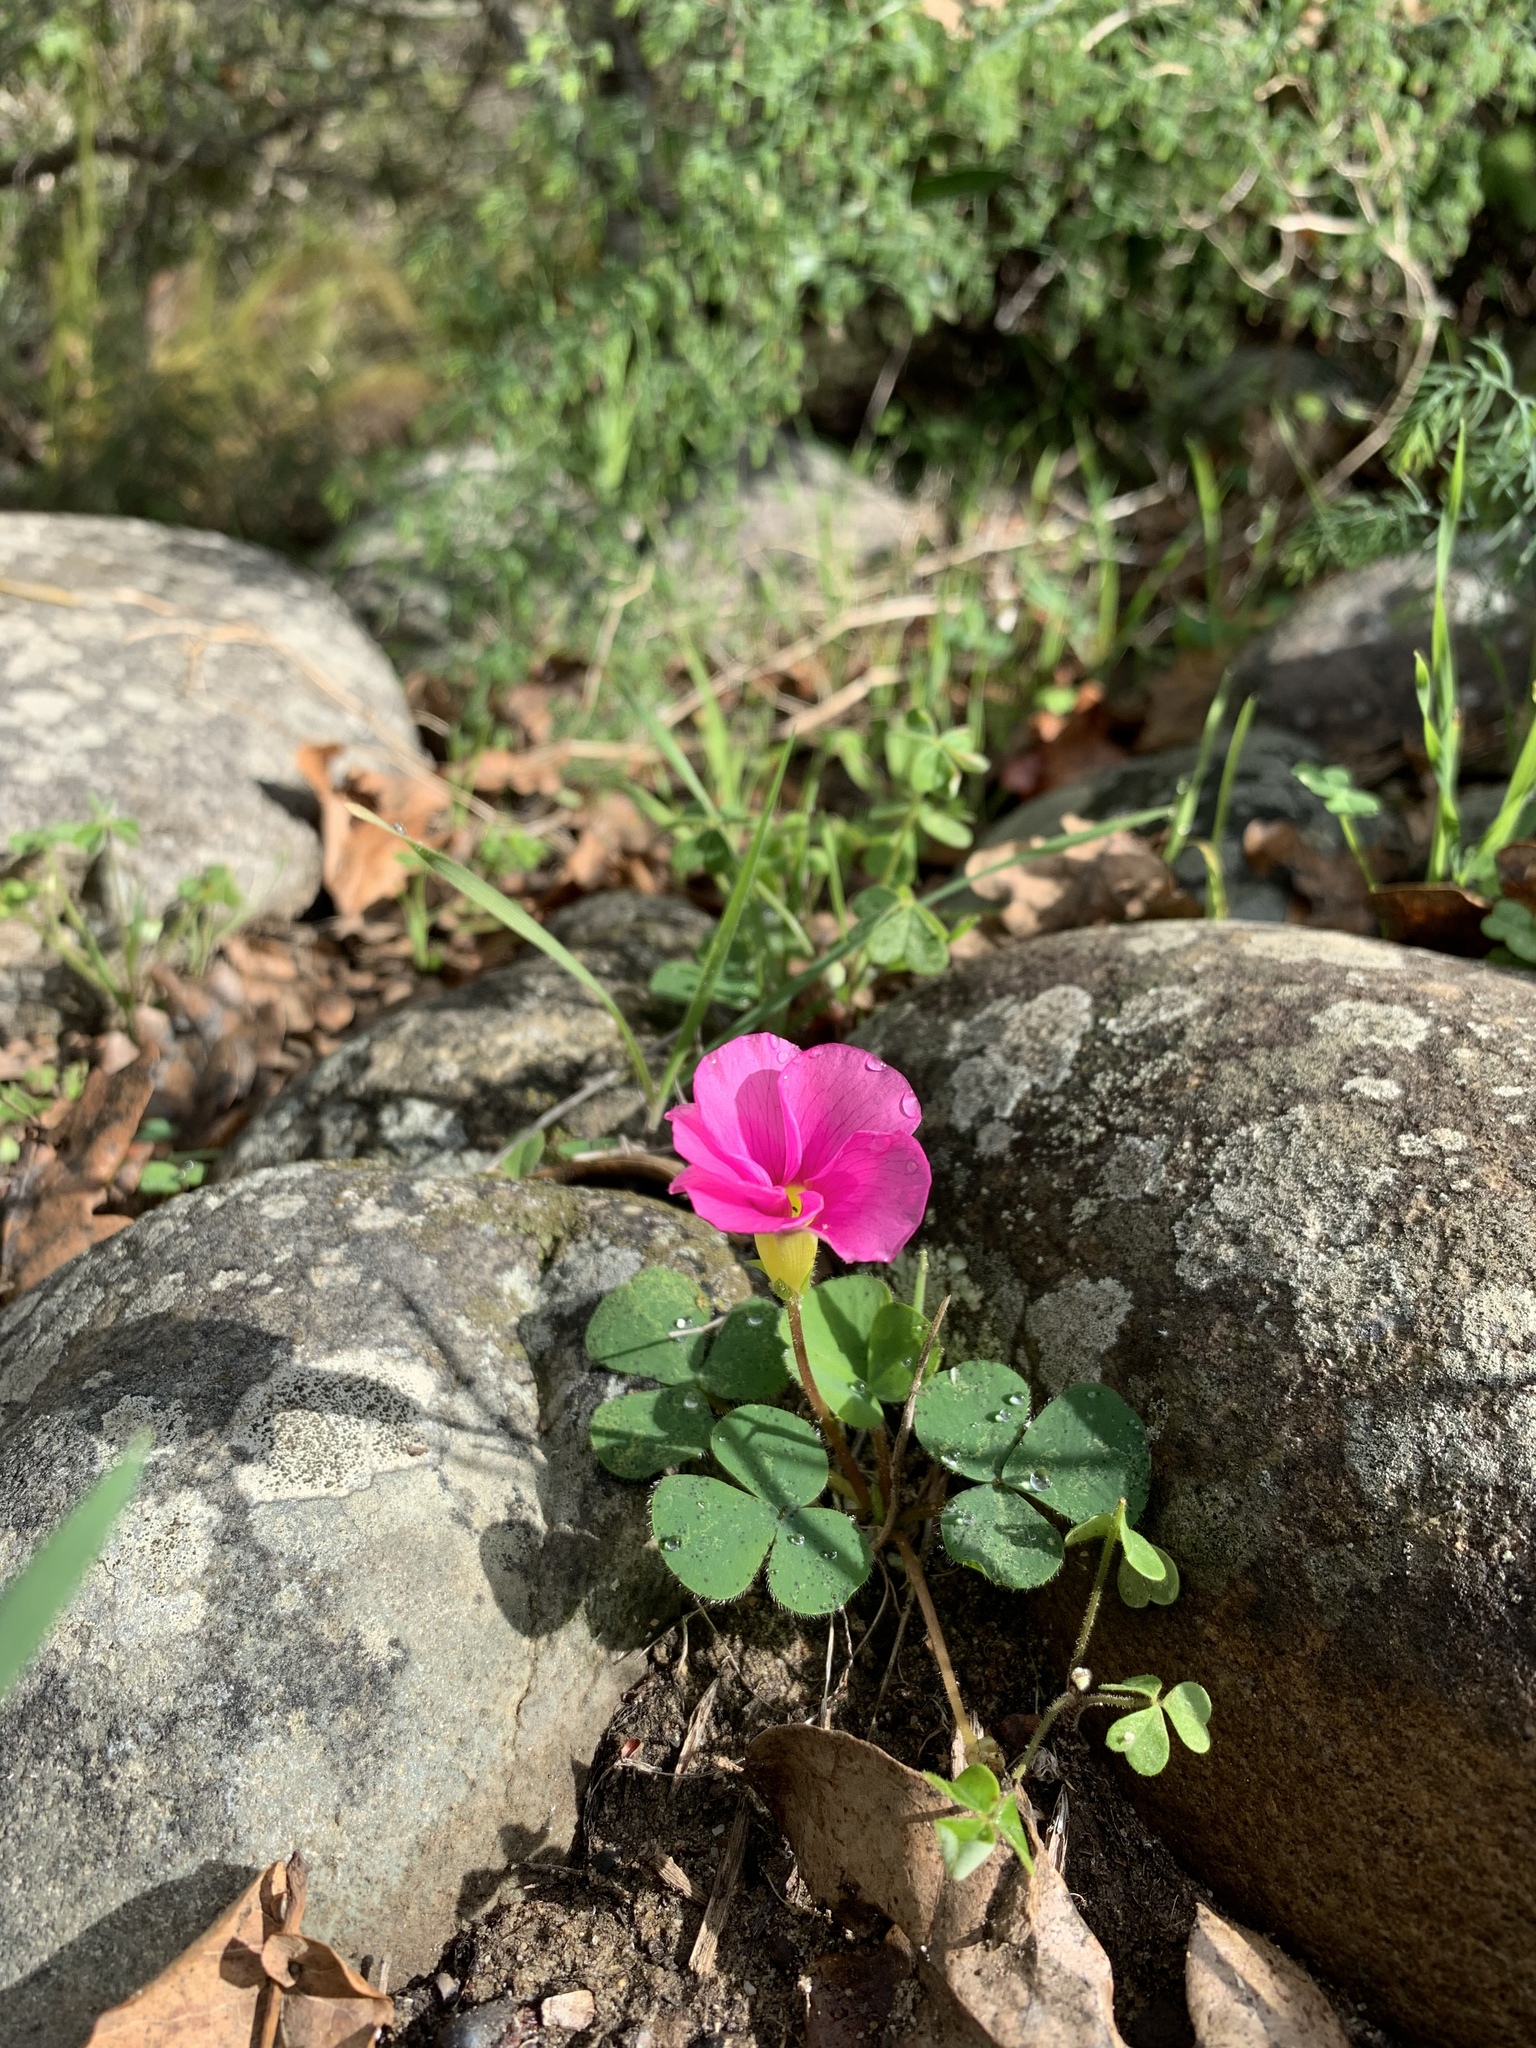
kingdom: Plantae
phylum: Tracheophyta
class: Magnoliopsida
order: Oxalidales
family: Oxalidaceae
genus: Oxalis
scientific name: Oxalis purpurea
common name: Purple woodsorrel
